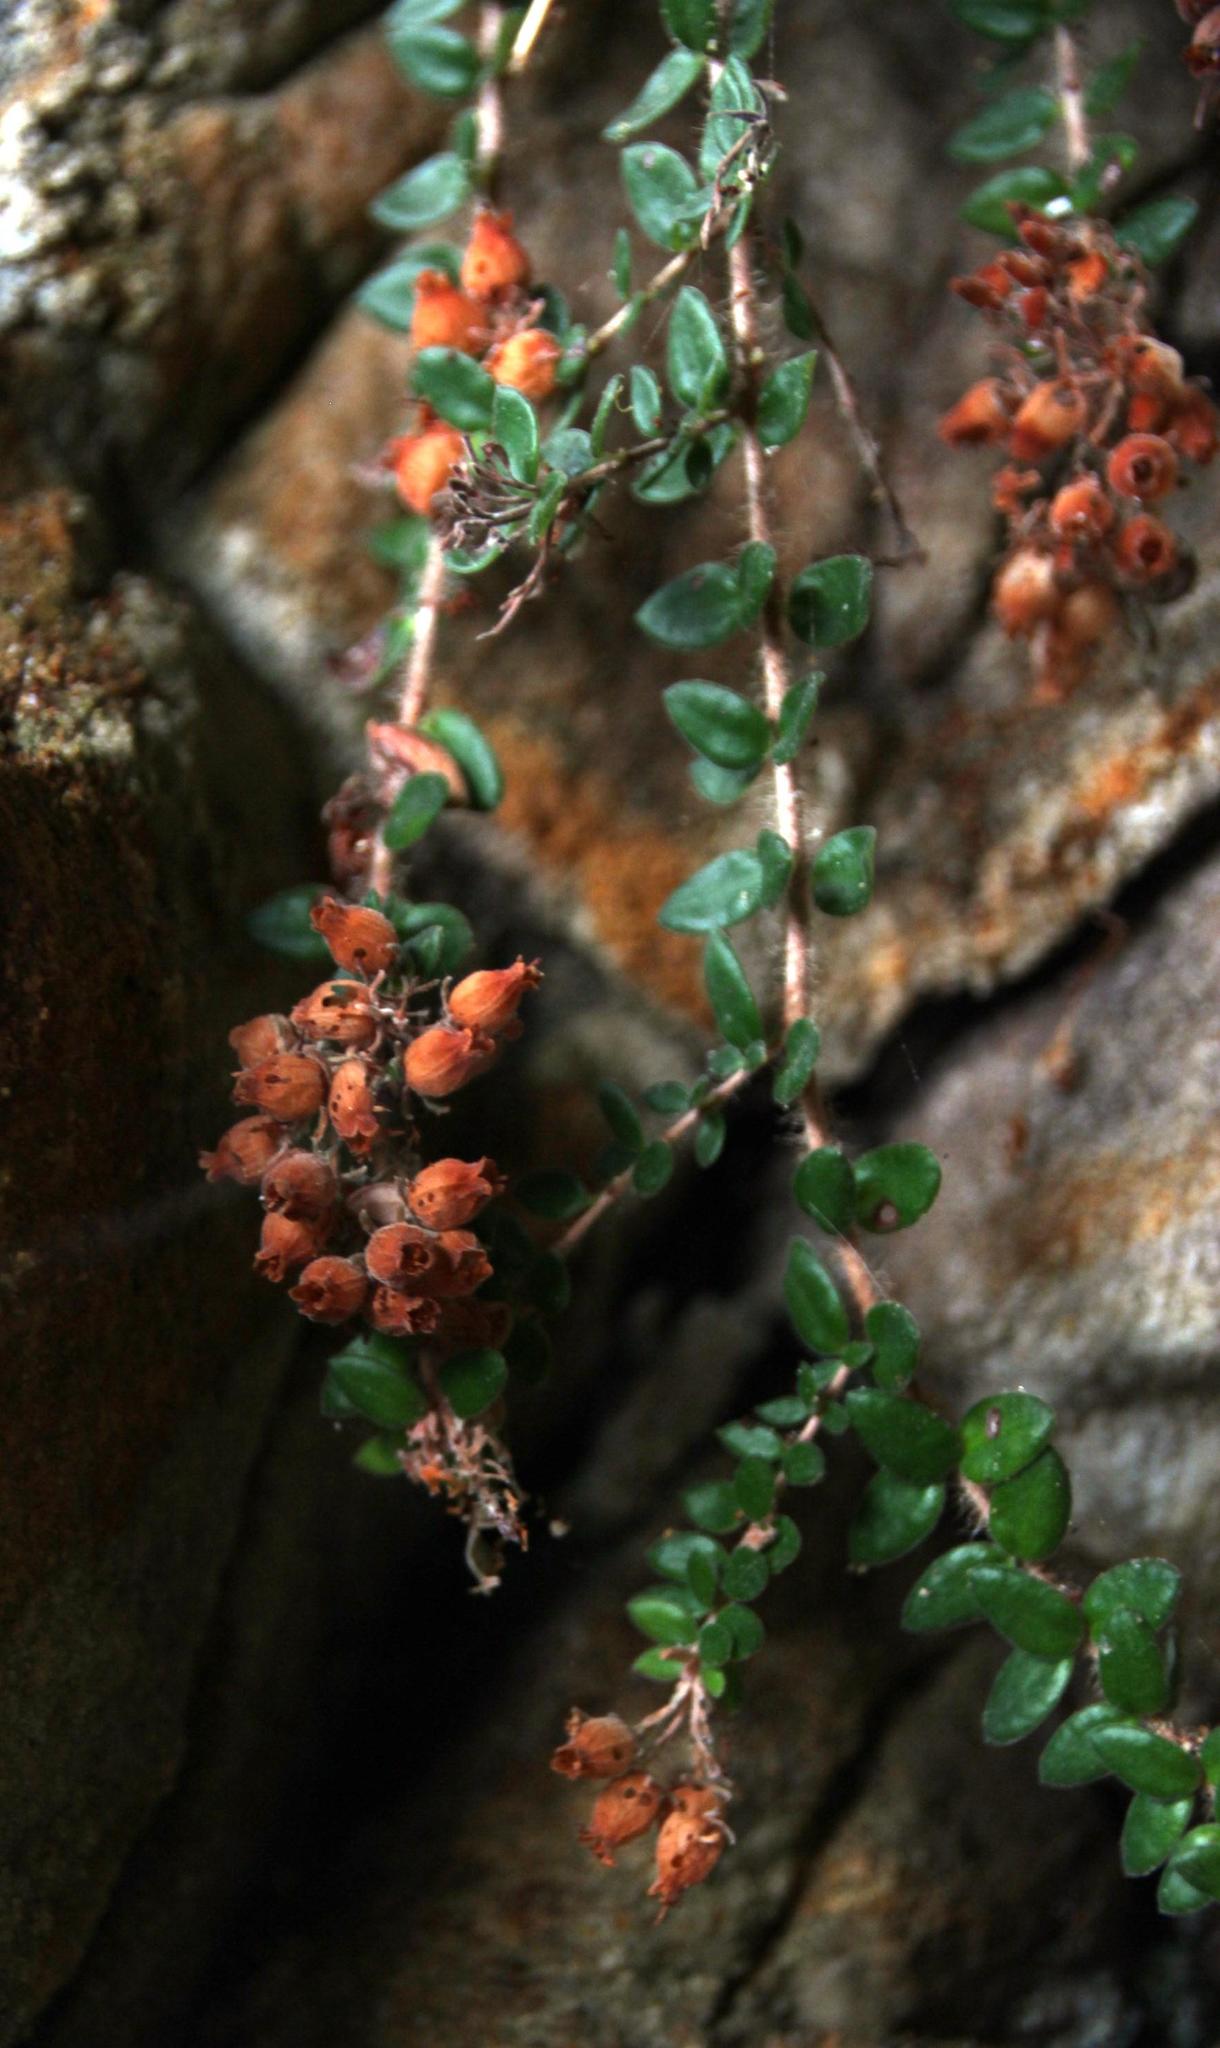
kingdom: Plantae
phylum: Tracheophyta
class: Magnoliopsida
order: Ericales
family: Ericaceae
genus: Erica
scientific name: Erica marifolia
